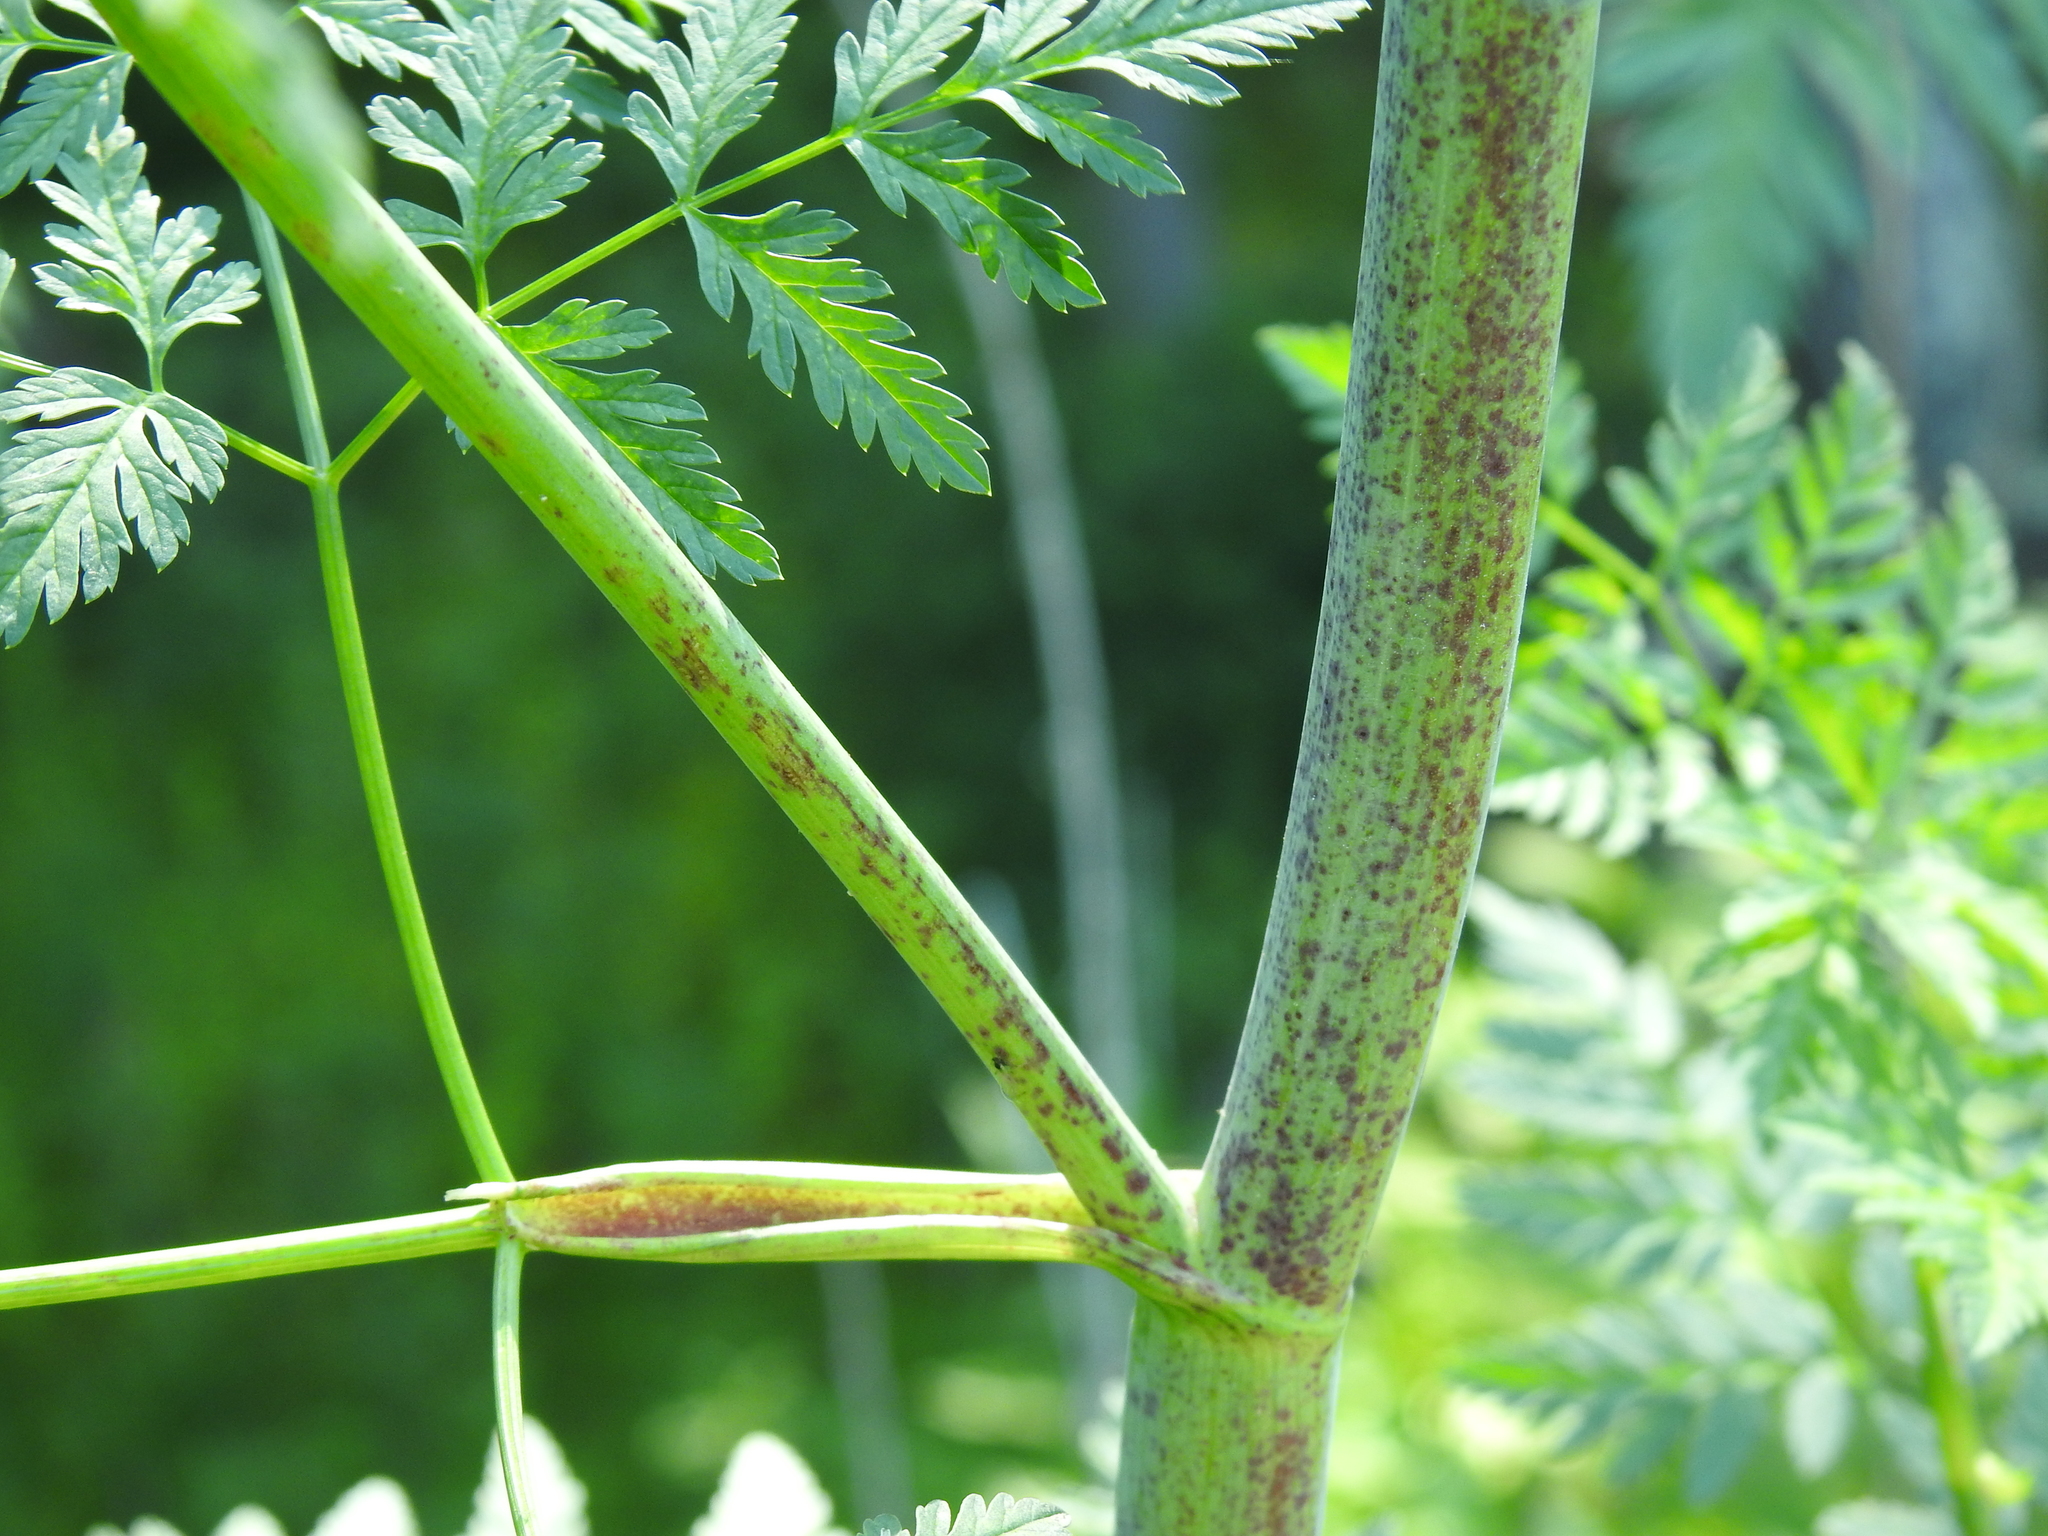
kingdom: Plantae
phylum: Tracheophyta
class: Magnoliopsida
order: Apiales
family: Apiaceae
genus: Conium
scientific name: Conium maculatum
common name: Hemlock
